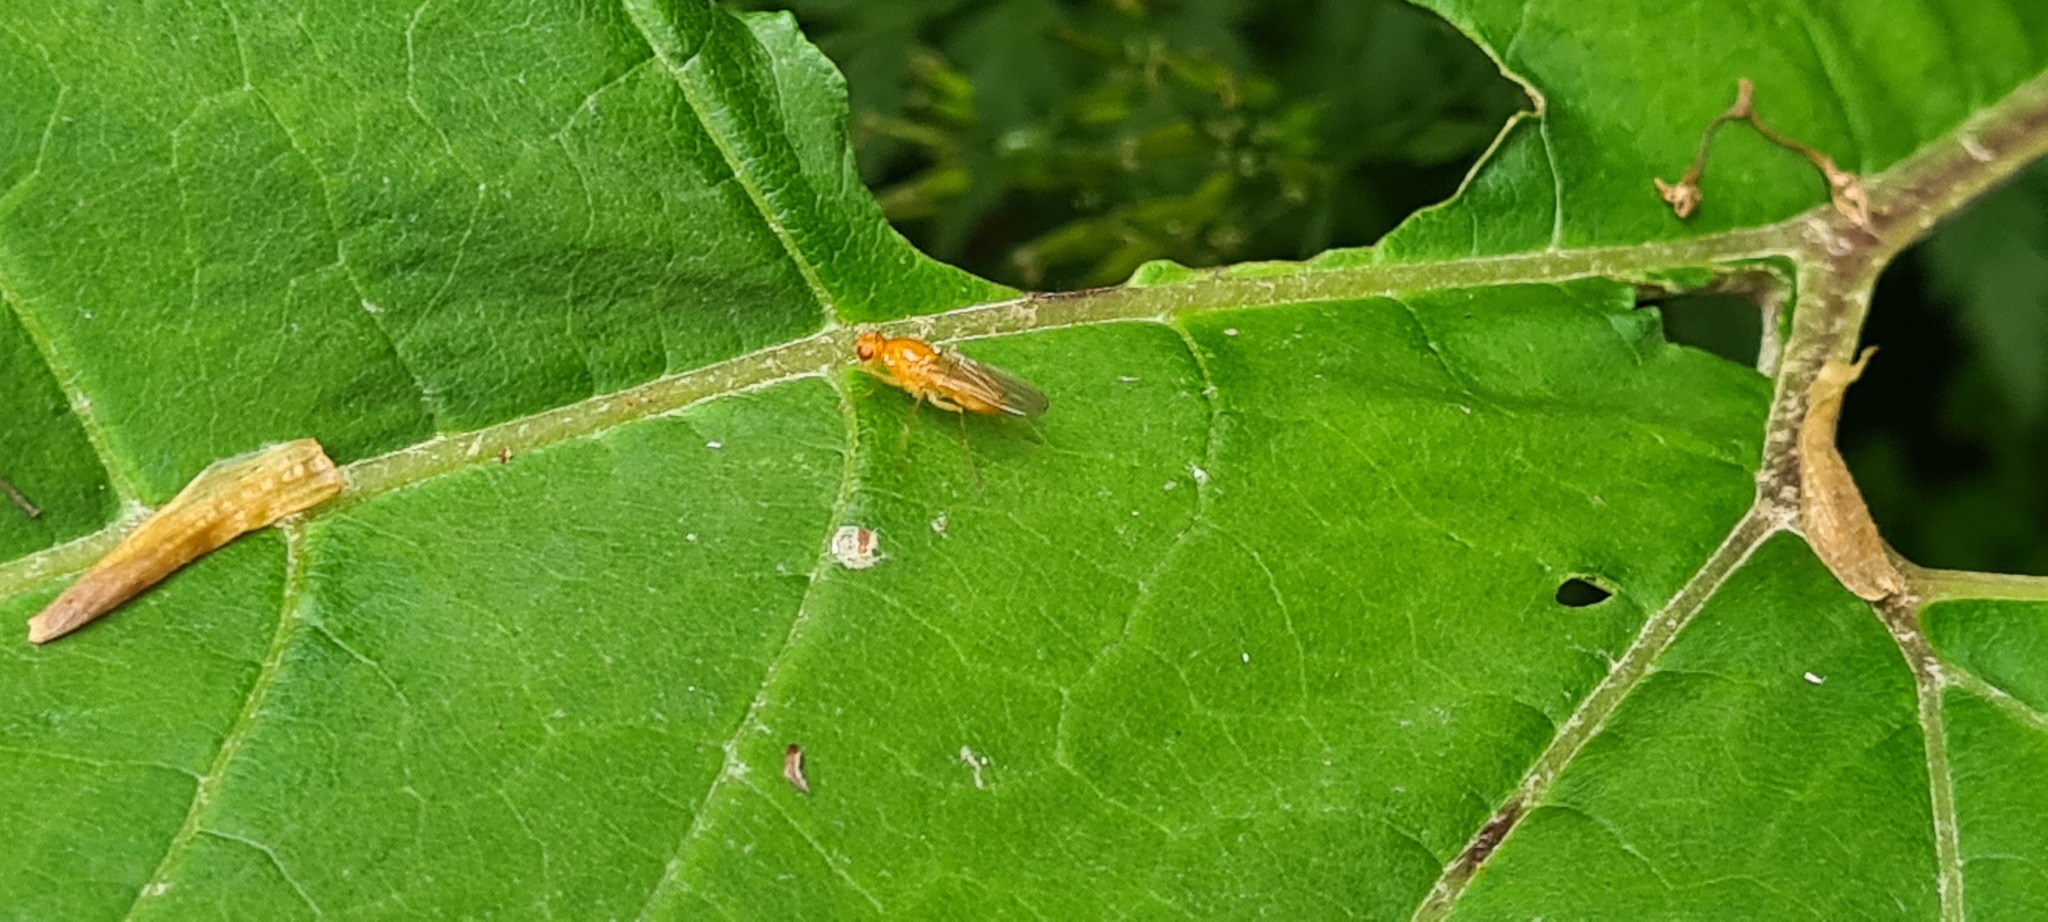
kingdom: Animalia
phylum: Arthropoda
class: Insecta
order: Diptera
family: Psilidae
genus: Psila
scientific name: Psila
